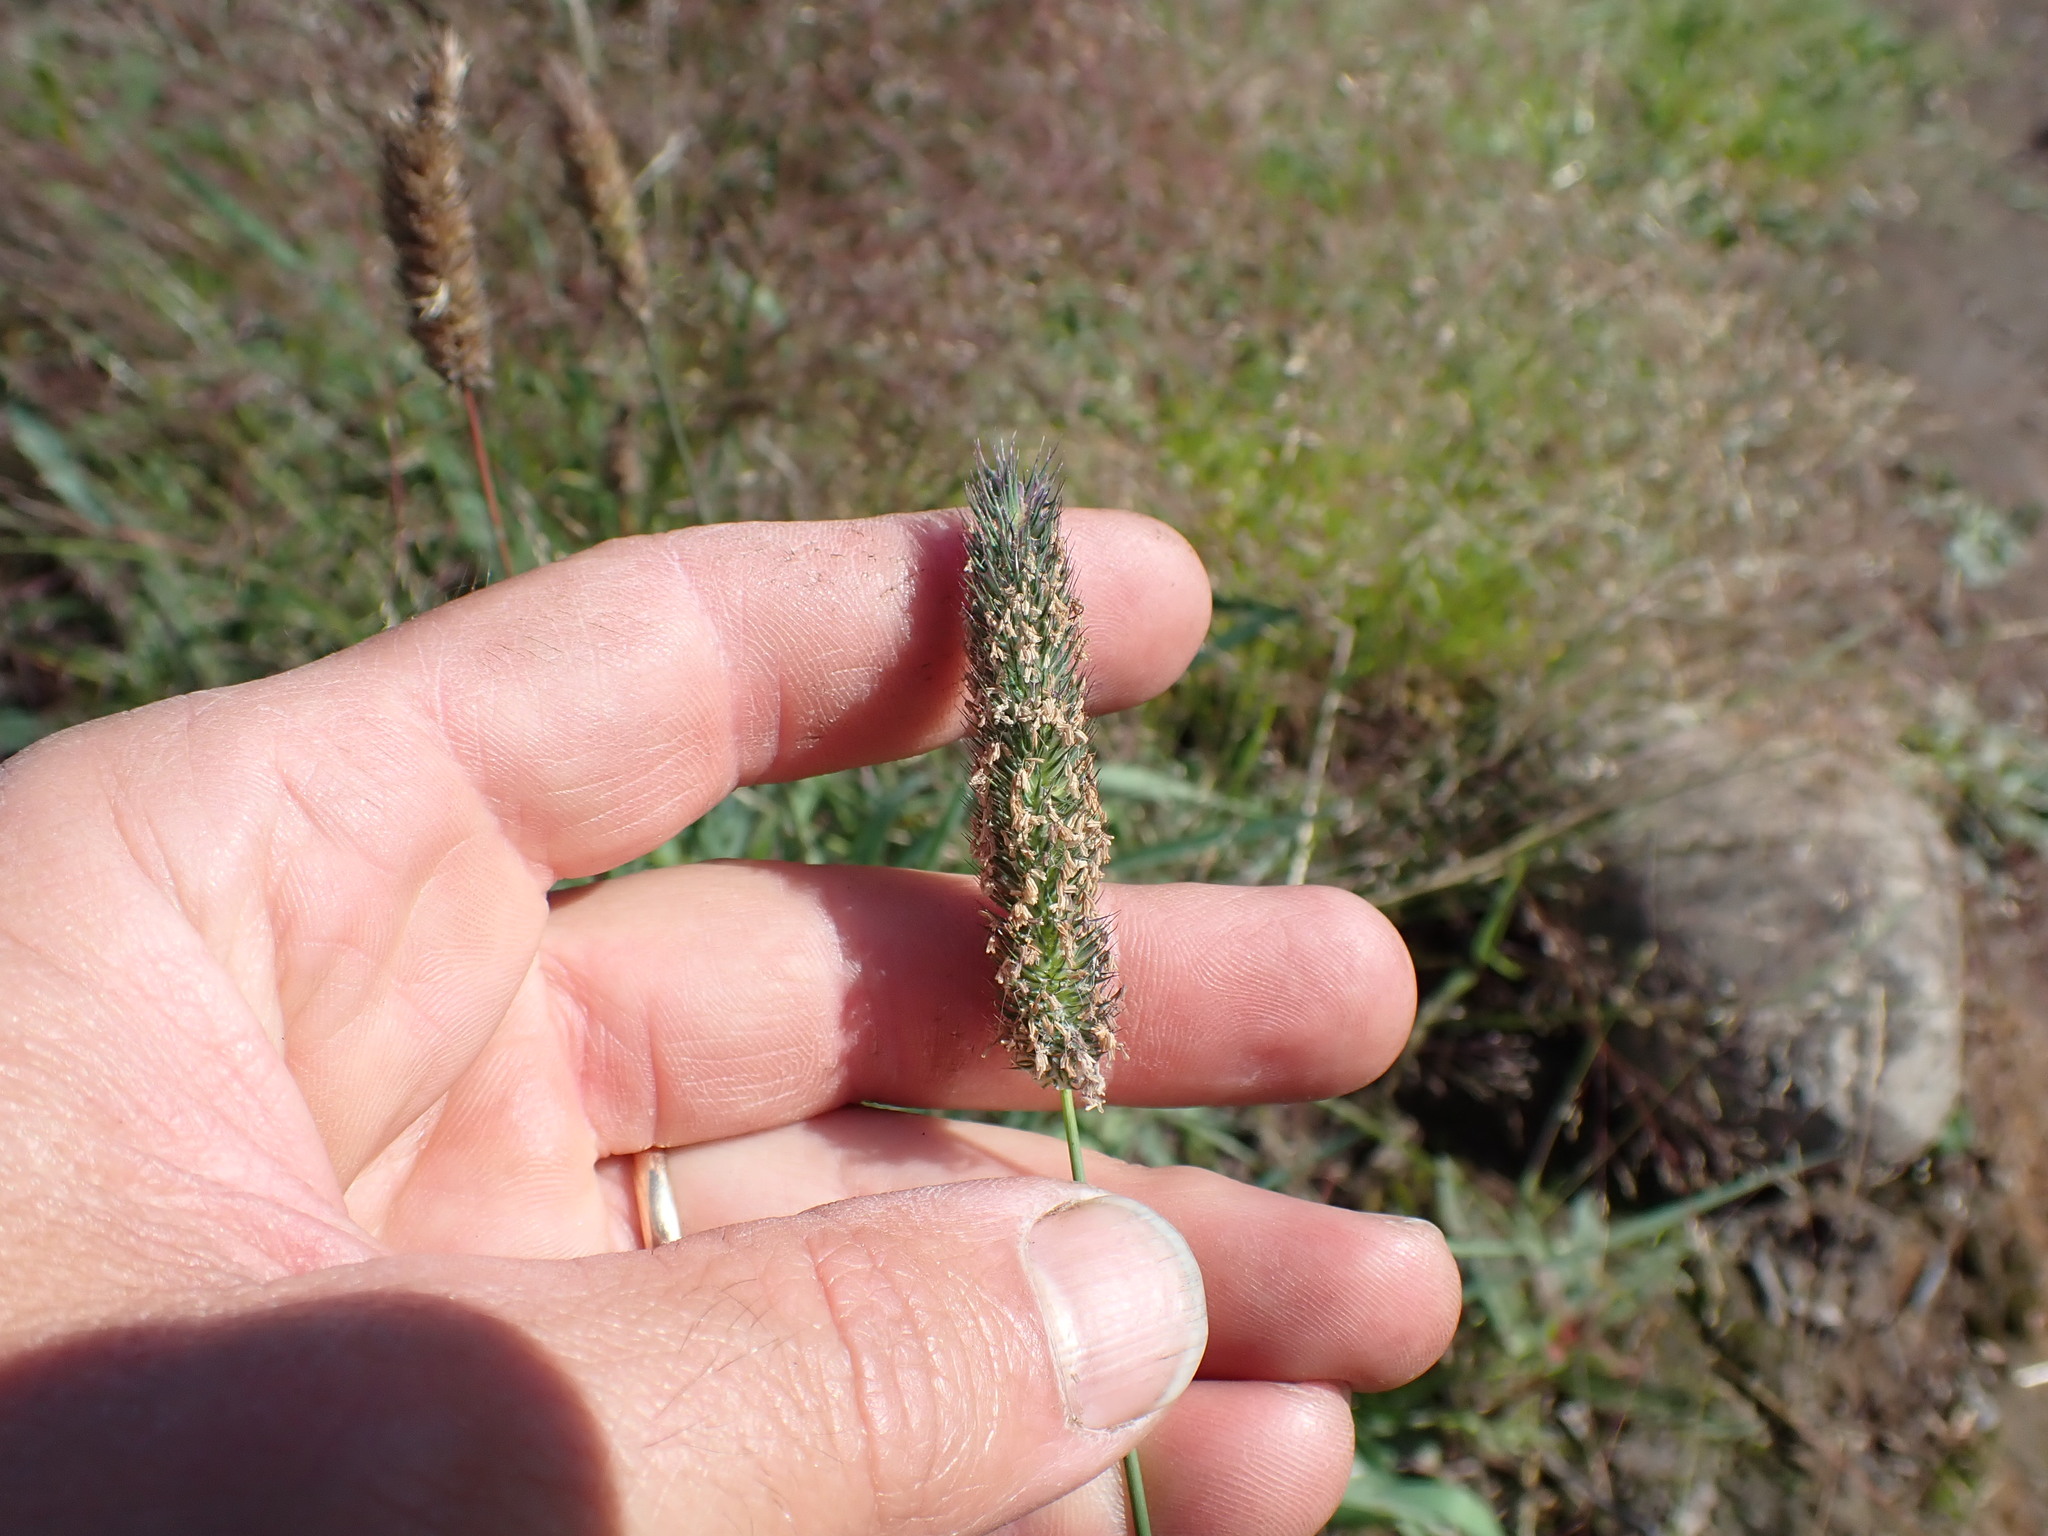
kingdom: Plantae
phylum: Tracheophyta
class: Liliopsida
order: Poales
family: Poaceae
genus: Phleum
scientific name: Phleum pratense
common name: Timothy grass
